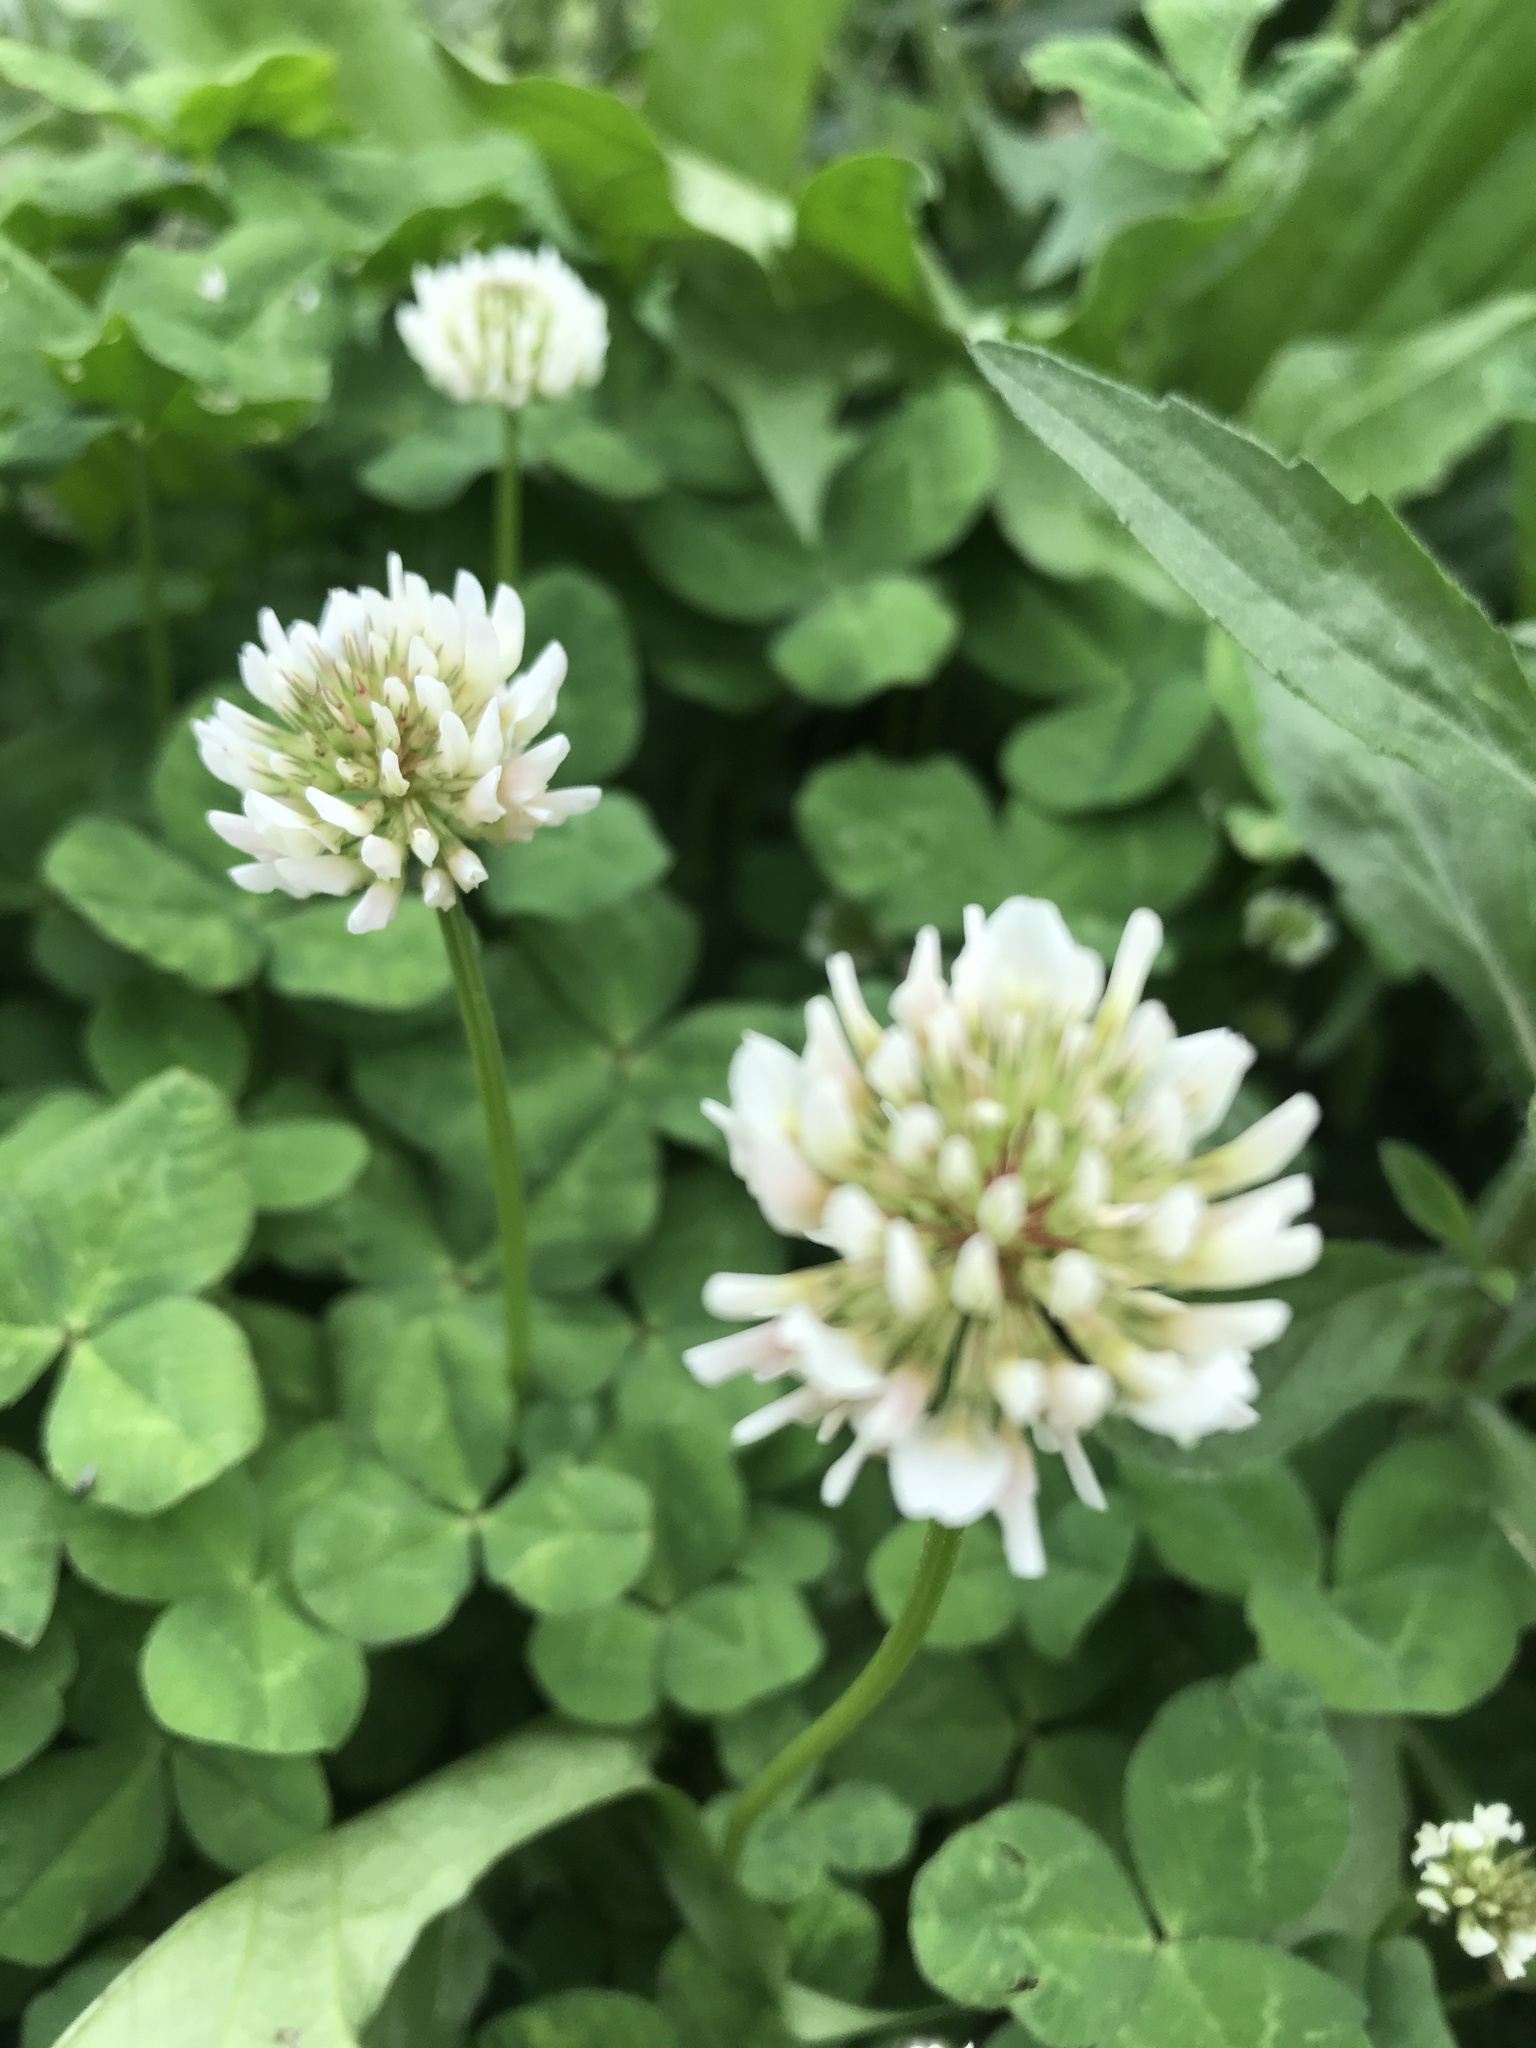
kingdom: Plantae
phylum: Tracheophyta
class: Magnoliopsida
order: Fabales
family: Fabaceae
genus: Trifolium
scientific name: Trifolium repens
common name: White clover
